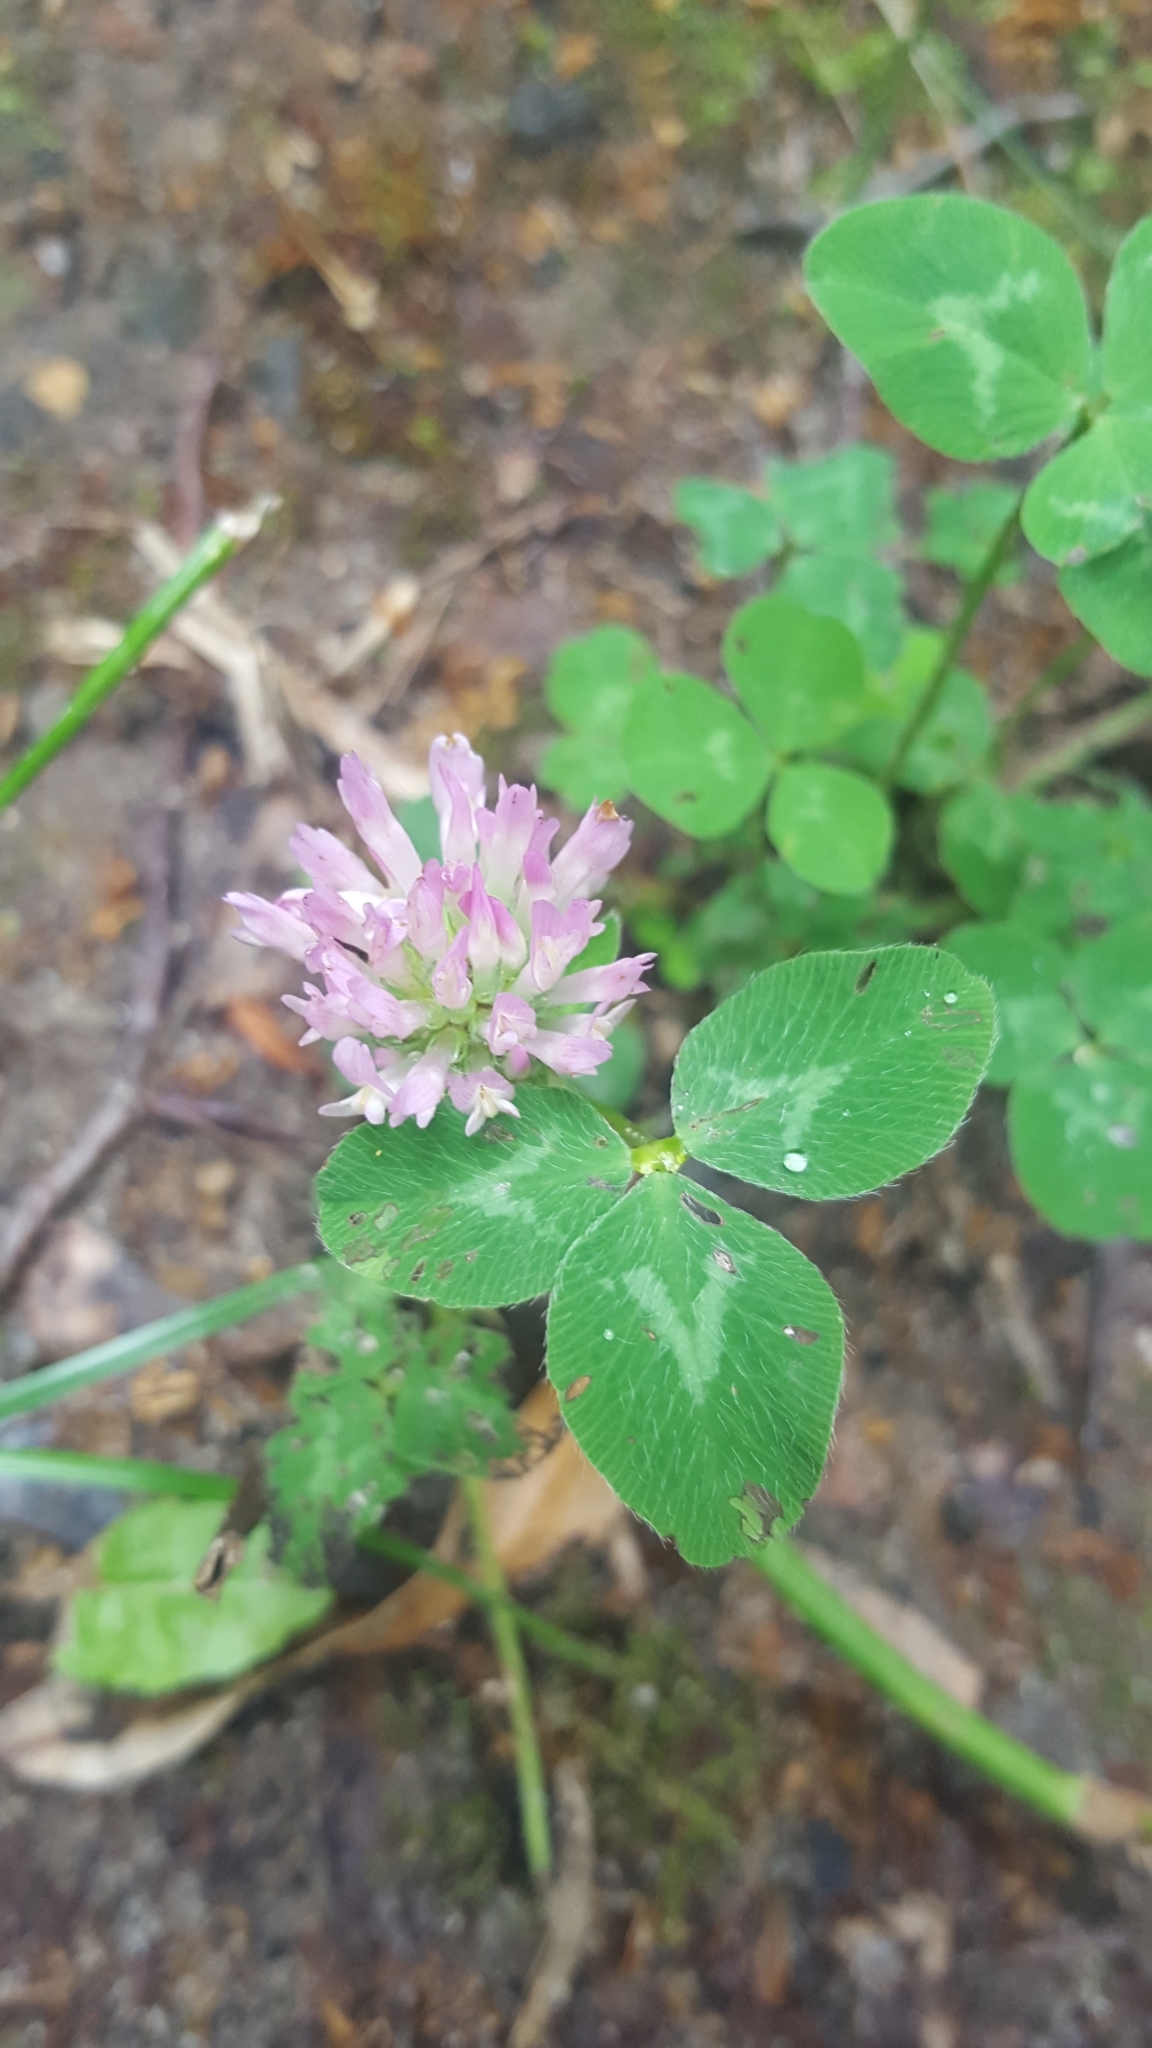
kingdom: Plantae
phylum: Tracheophyta
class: Magnoliopsida
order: Fabales
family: Fabaceae
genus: Trifolium
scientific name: Trifolium pratense
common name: Red clover
